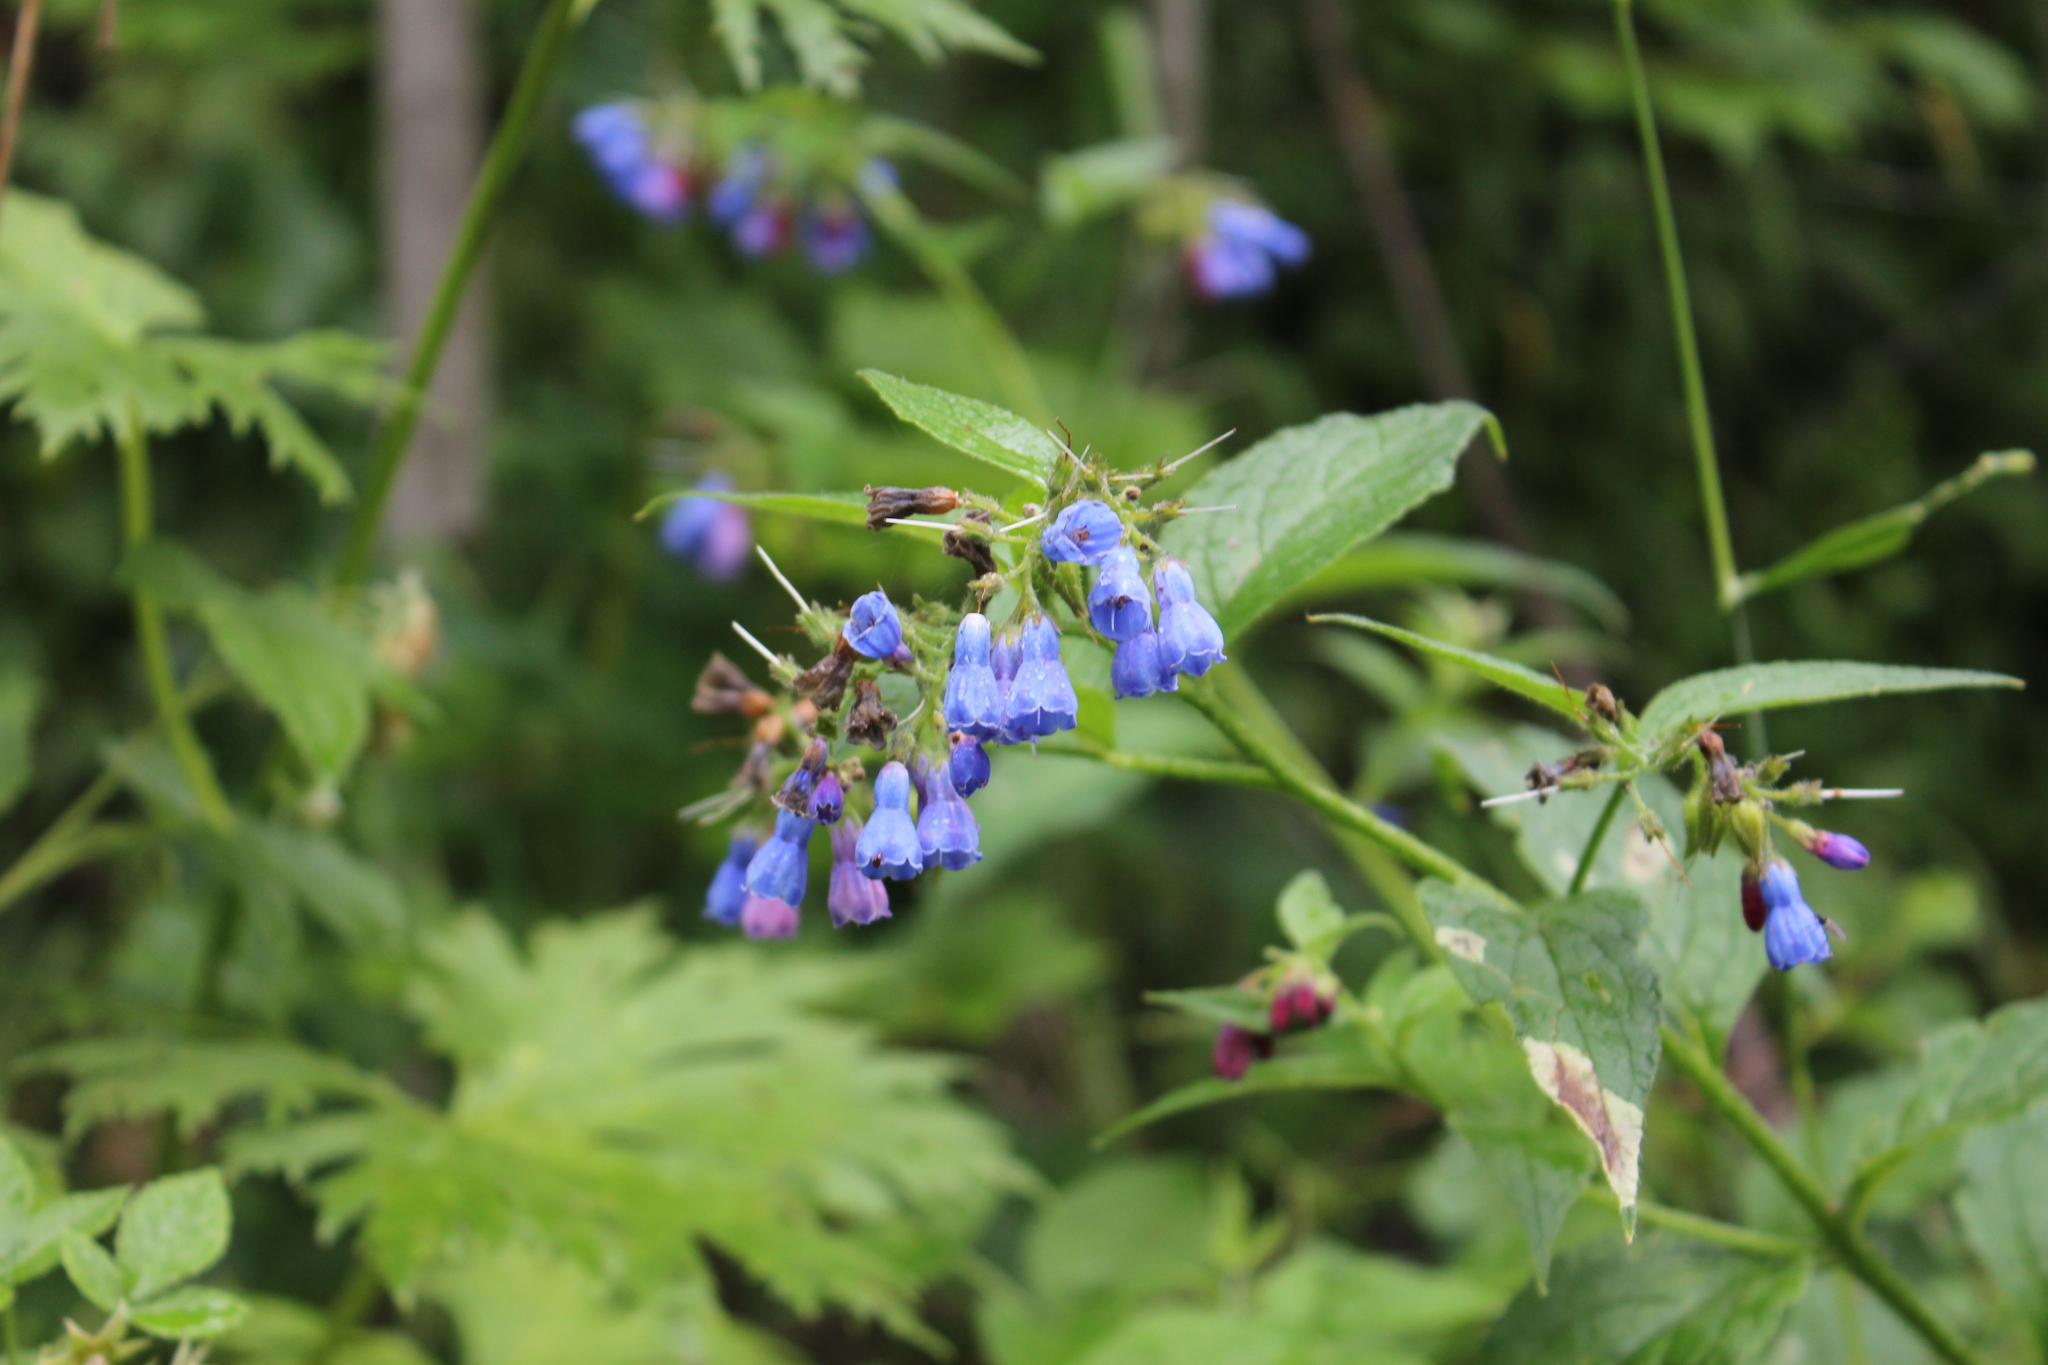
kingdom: Plantae
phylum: Tracheophyta
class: Magnoliopsida
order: Boraginales
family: Boraginaceae
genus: Symphytum
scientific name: Symphytum asperum
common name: Prickly comfrey
